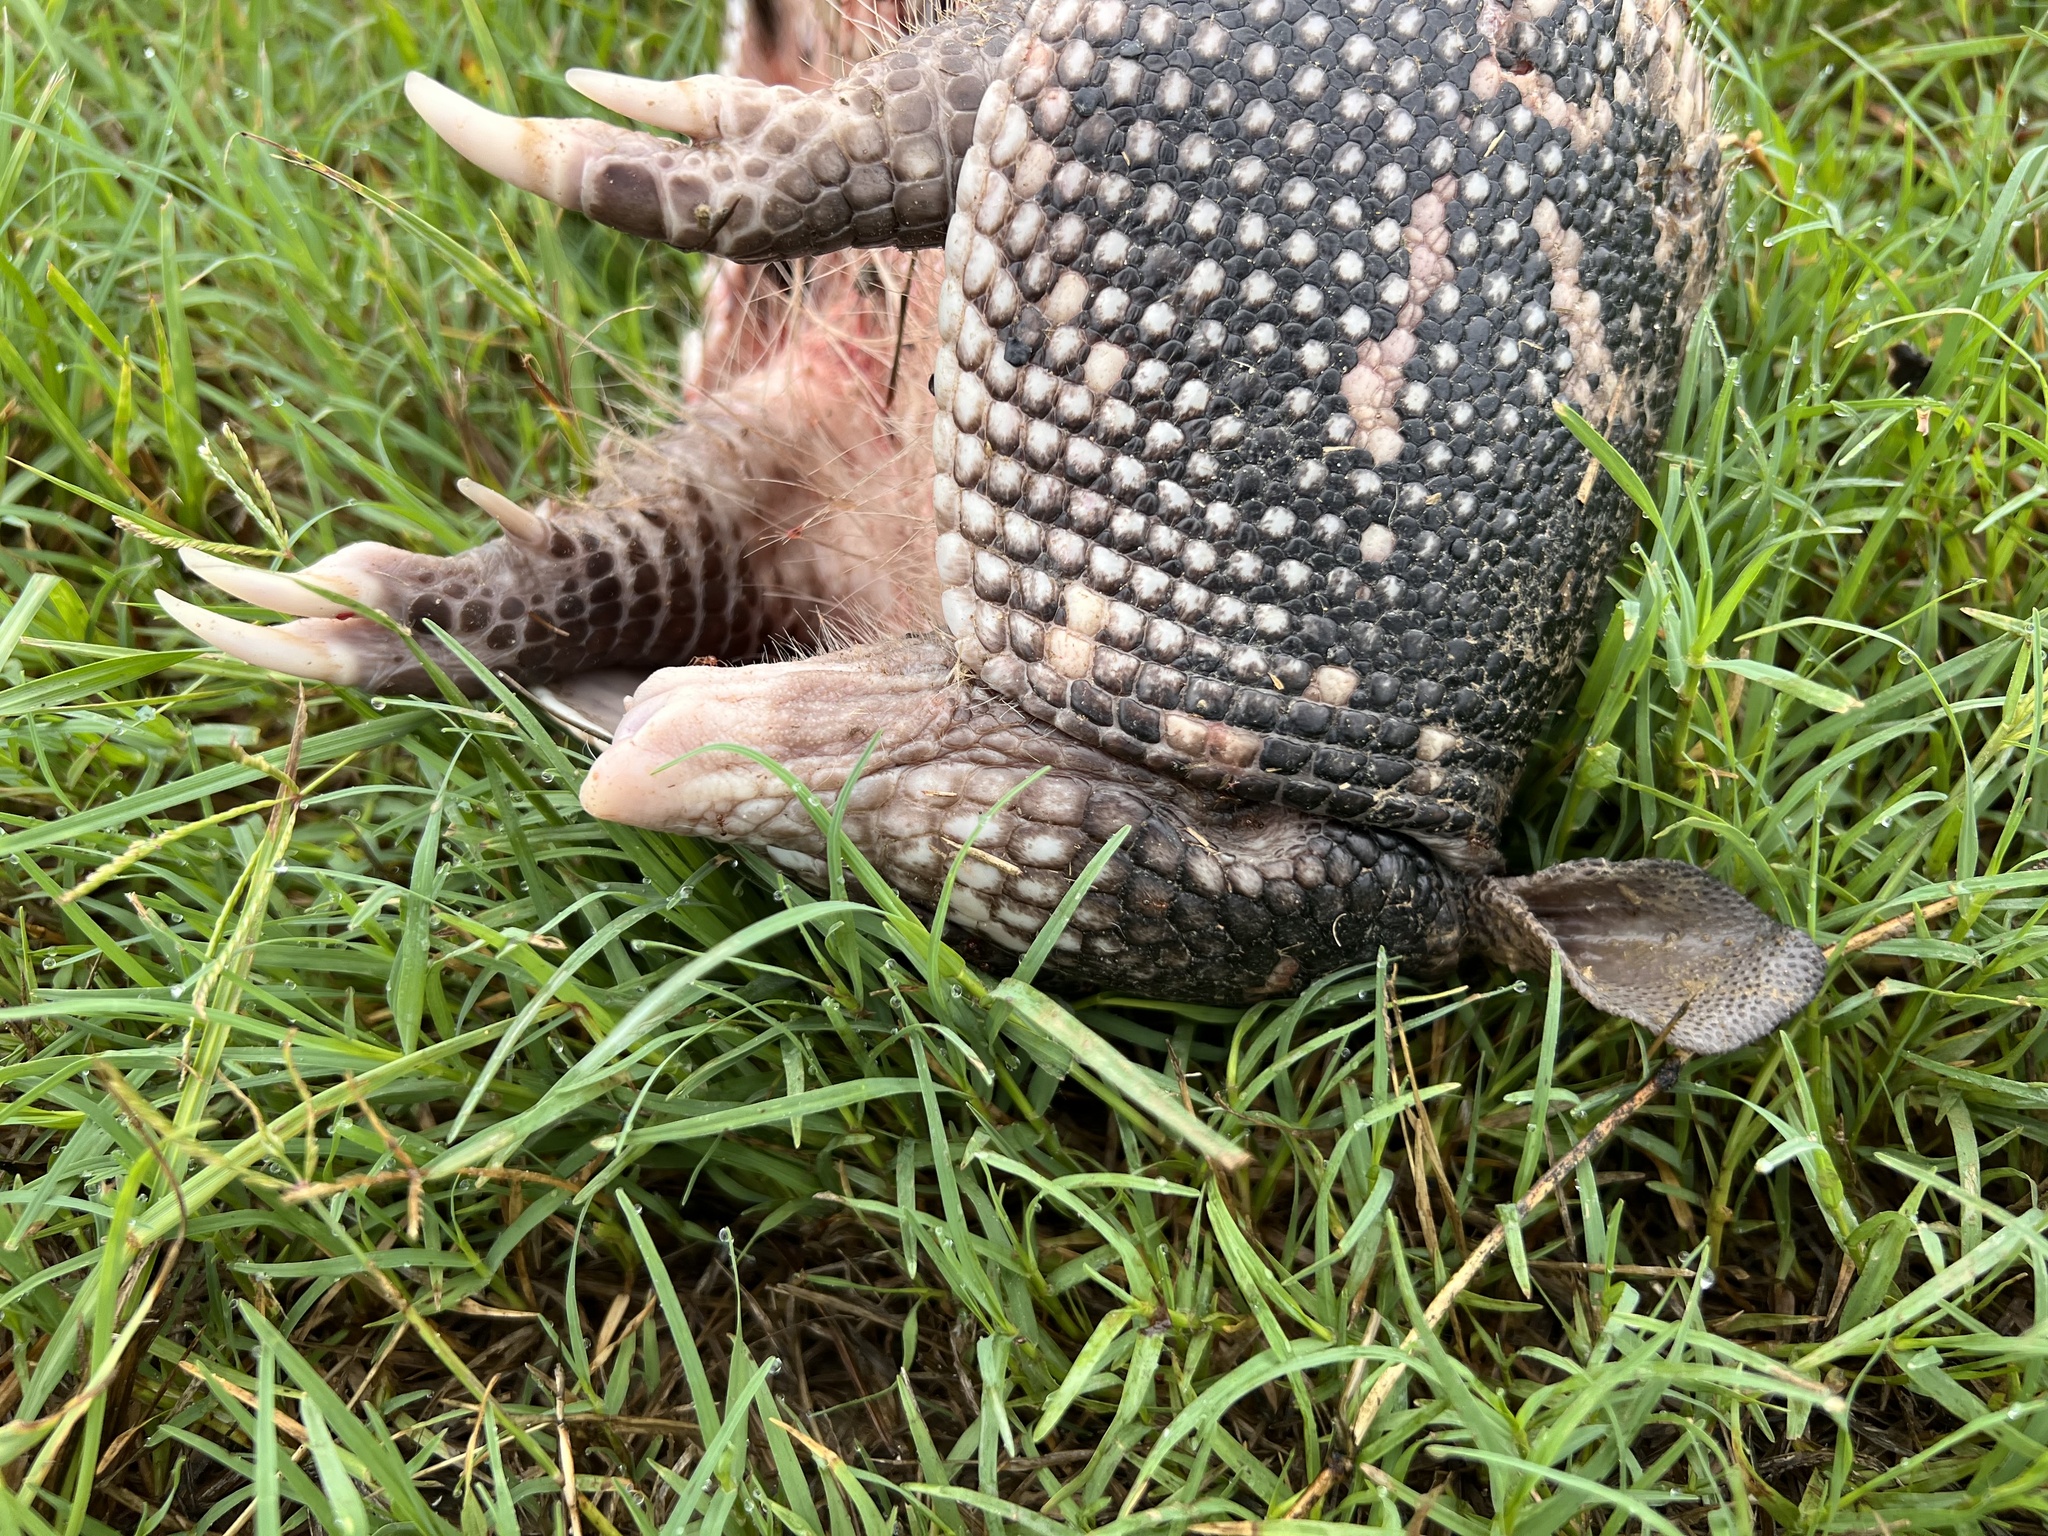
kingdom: Animalia
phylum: Chordata
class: Mammalia
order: Cingulata
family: Dasypodidae
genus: Dasypus
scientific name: Dasypus novemcinctus
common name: Nine-banded armadillo
